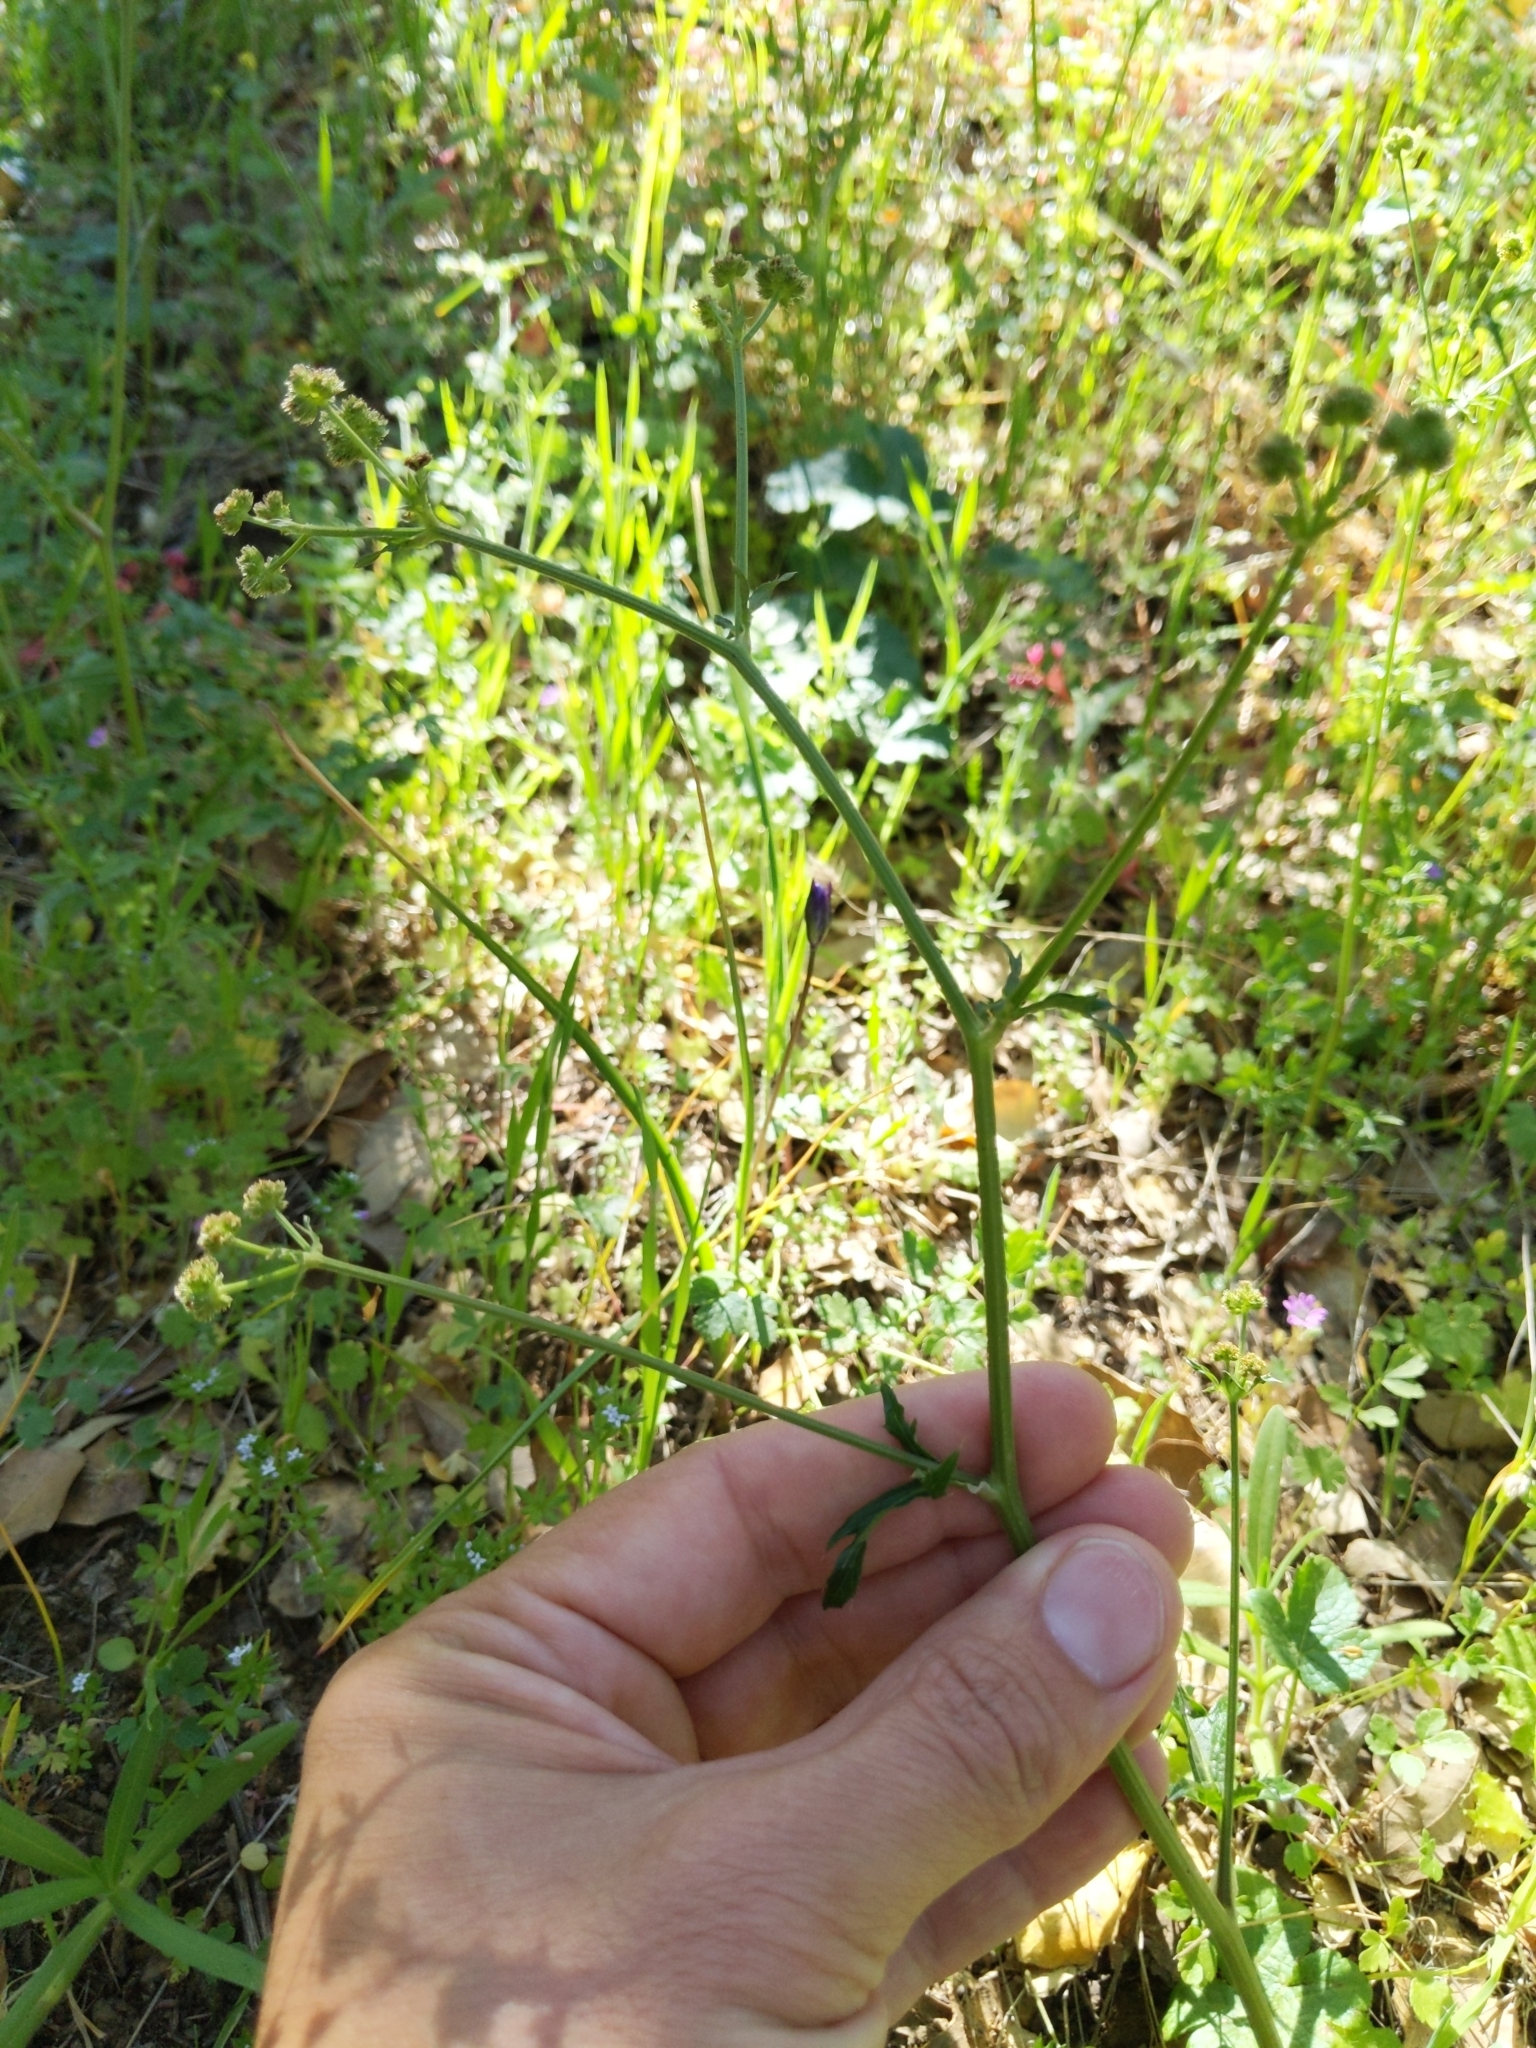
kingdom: Plantae
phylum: Tracheophyta
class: Magnoliopsida
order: Apiales
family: Apiaceae
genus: Sanicula
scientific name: Sanicula crassicaulis
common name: Western snakeroot
